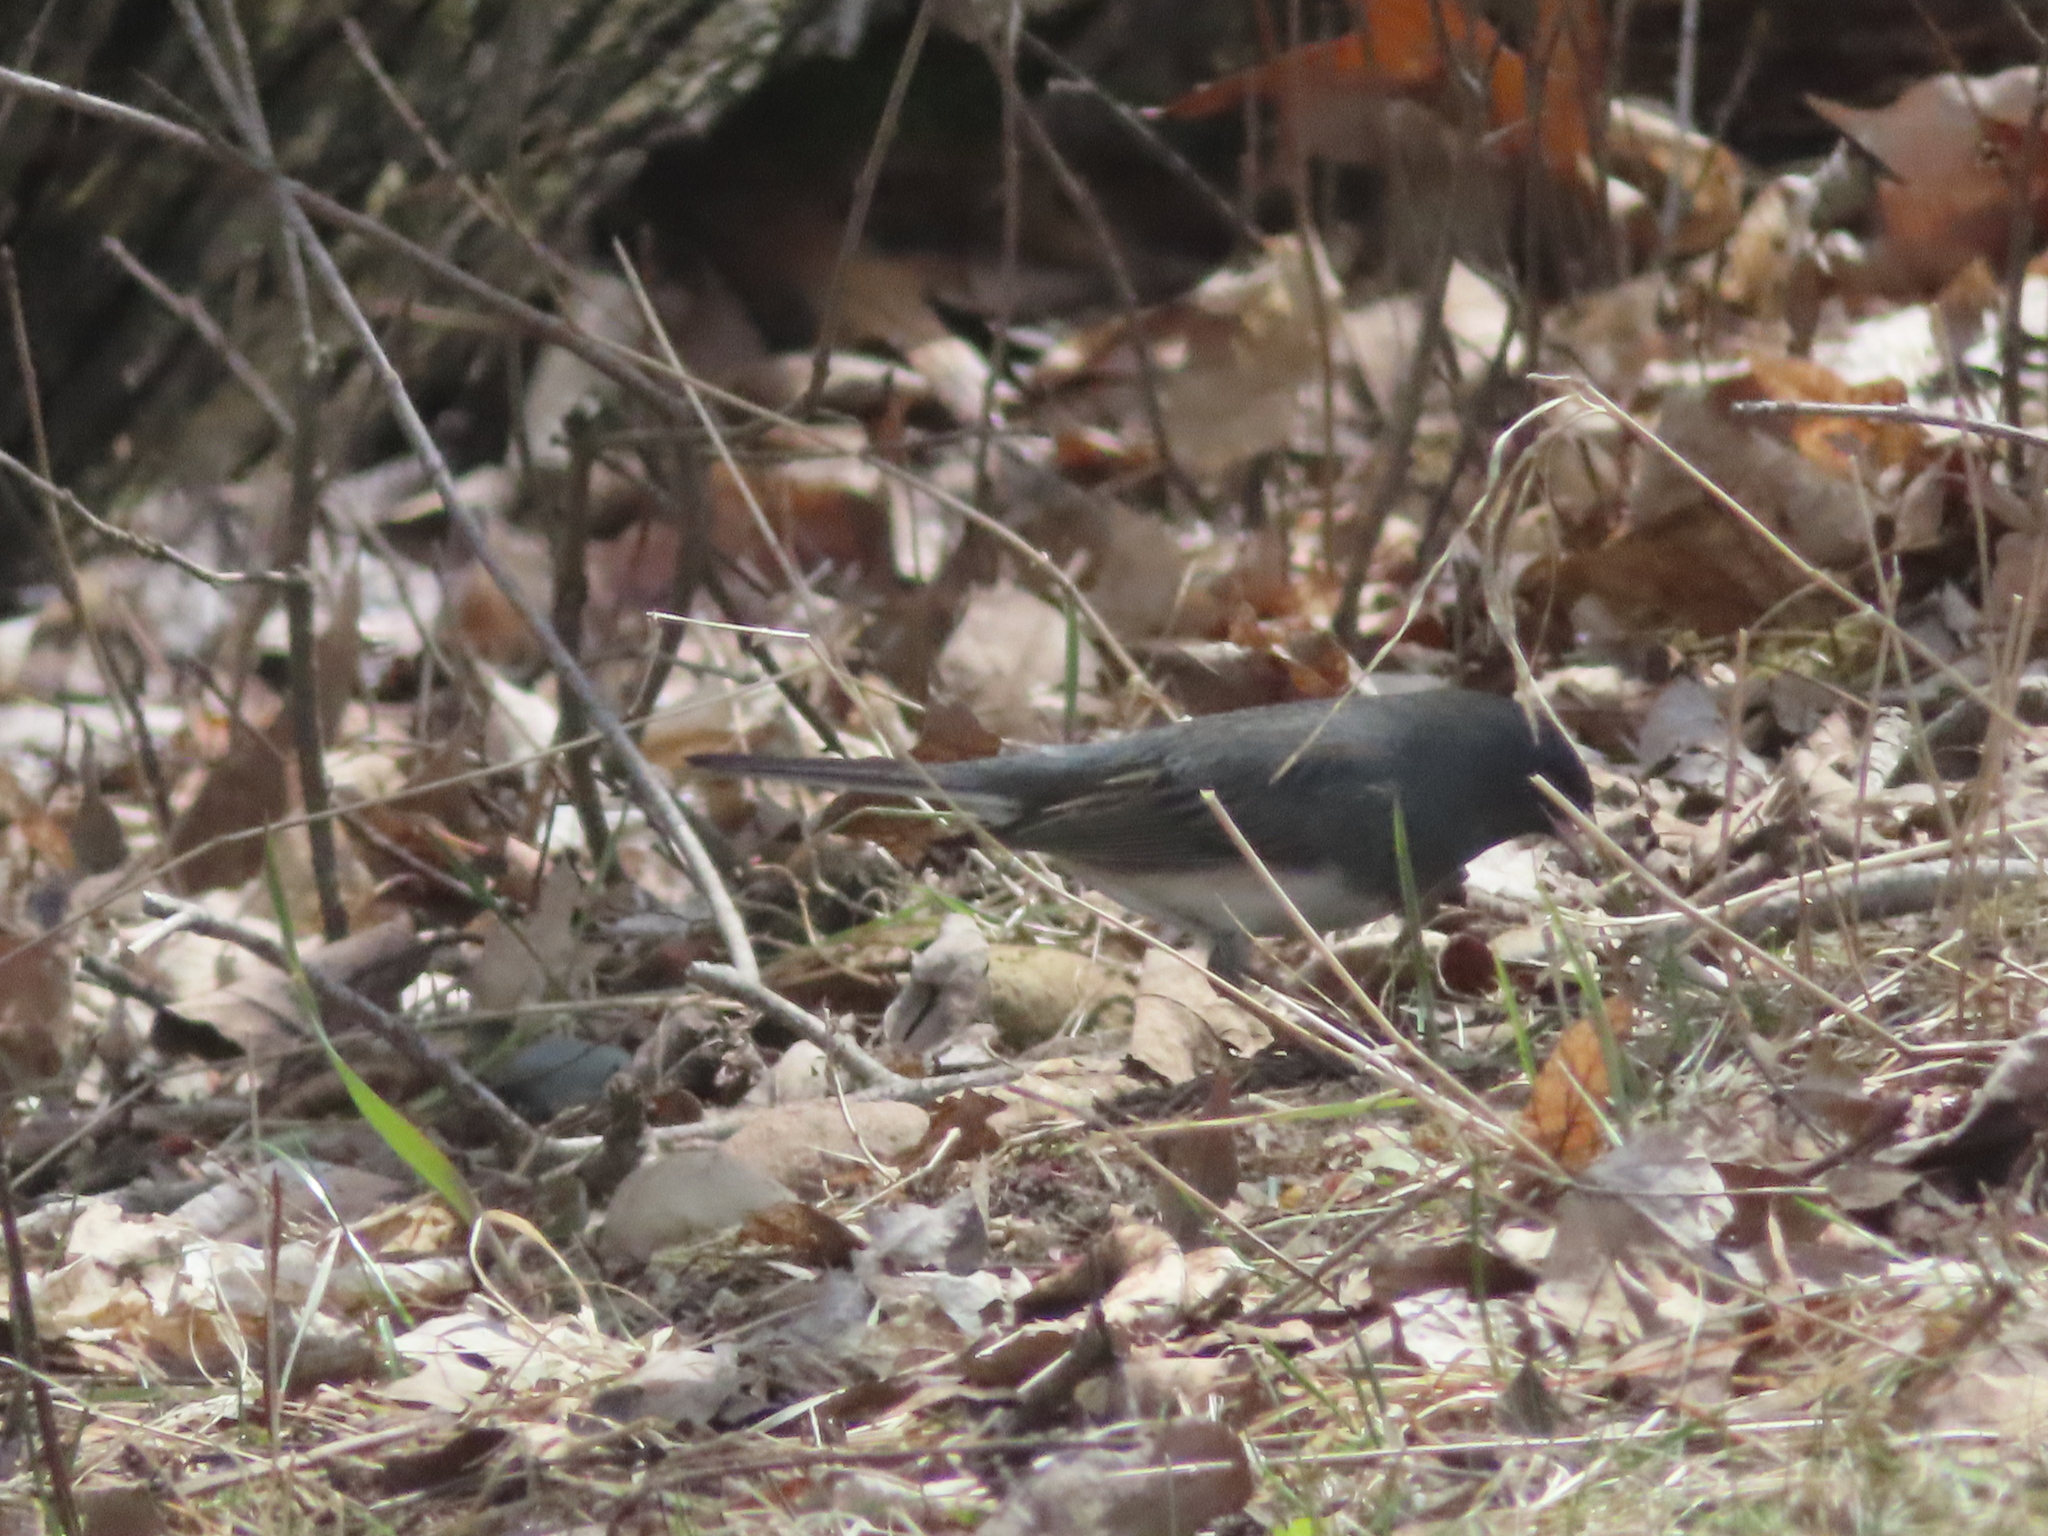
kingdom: Animalia
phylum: Chordata
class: Aves
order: Passeriformes
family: Passerellidae
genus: Junco
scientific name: Junco hyemalis
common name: Dark-eyed junco
